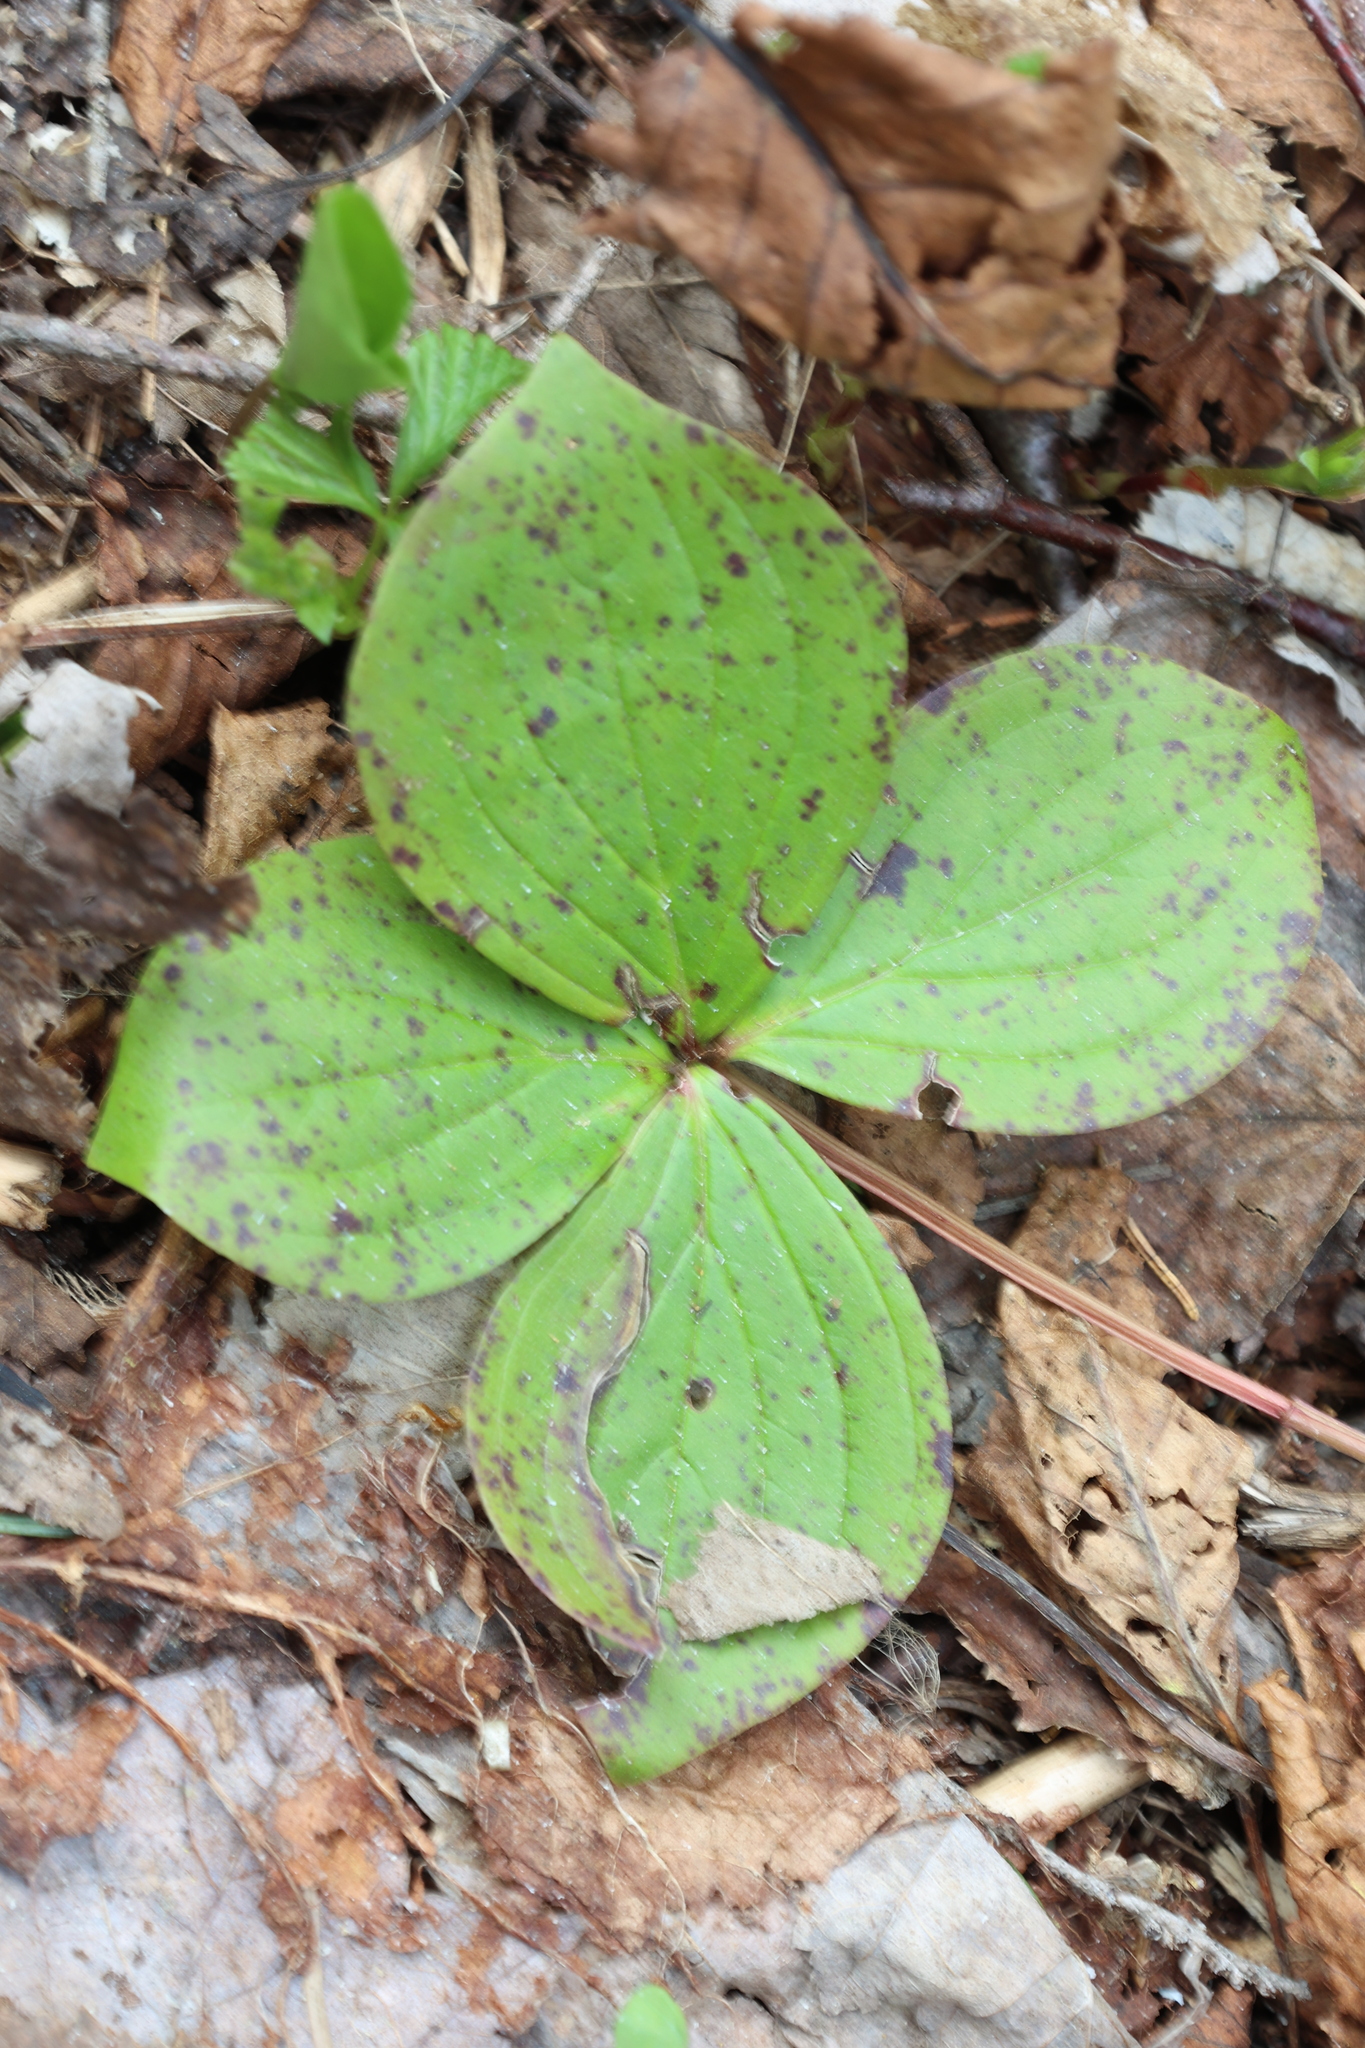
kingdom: Plantae
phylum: Tracheophyta
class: Magnoliopsida
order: Cornales
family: Cornaceae
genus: Cornus
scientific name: Cornus canadensis
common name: Creeping dogwood
